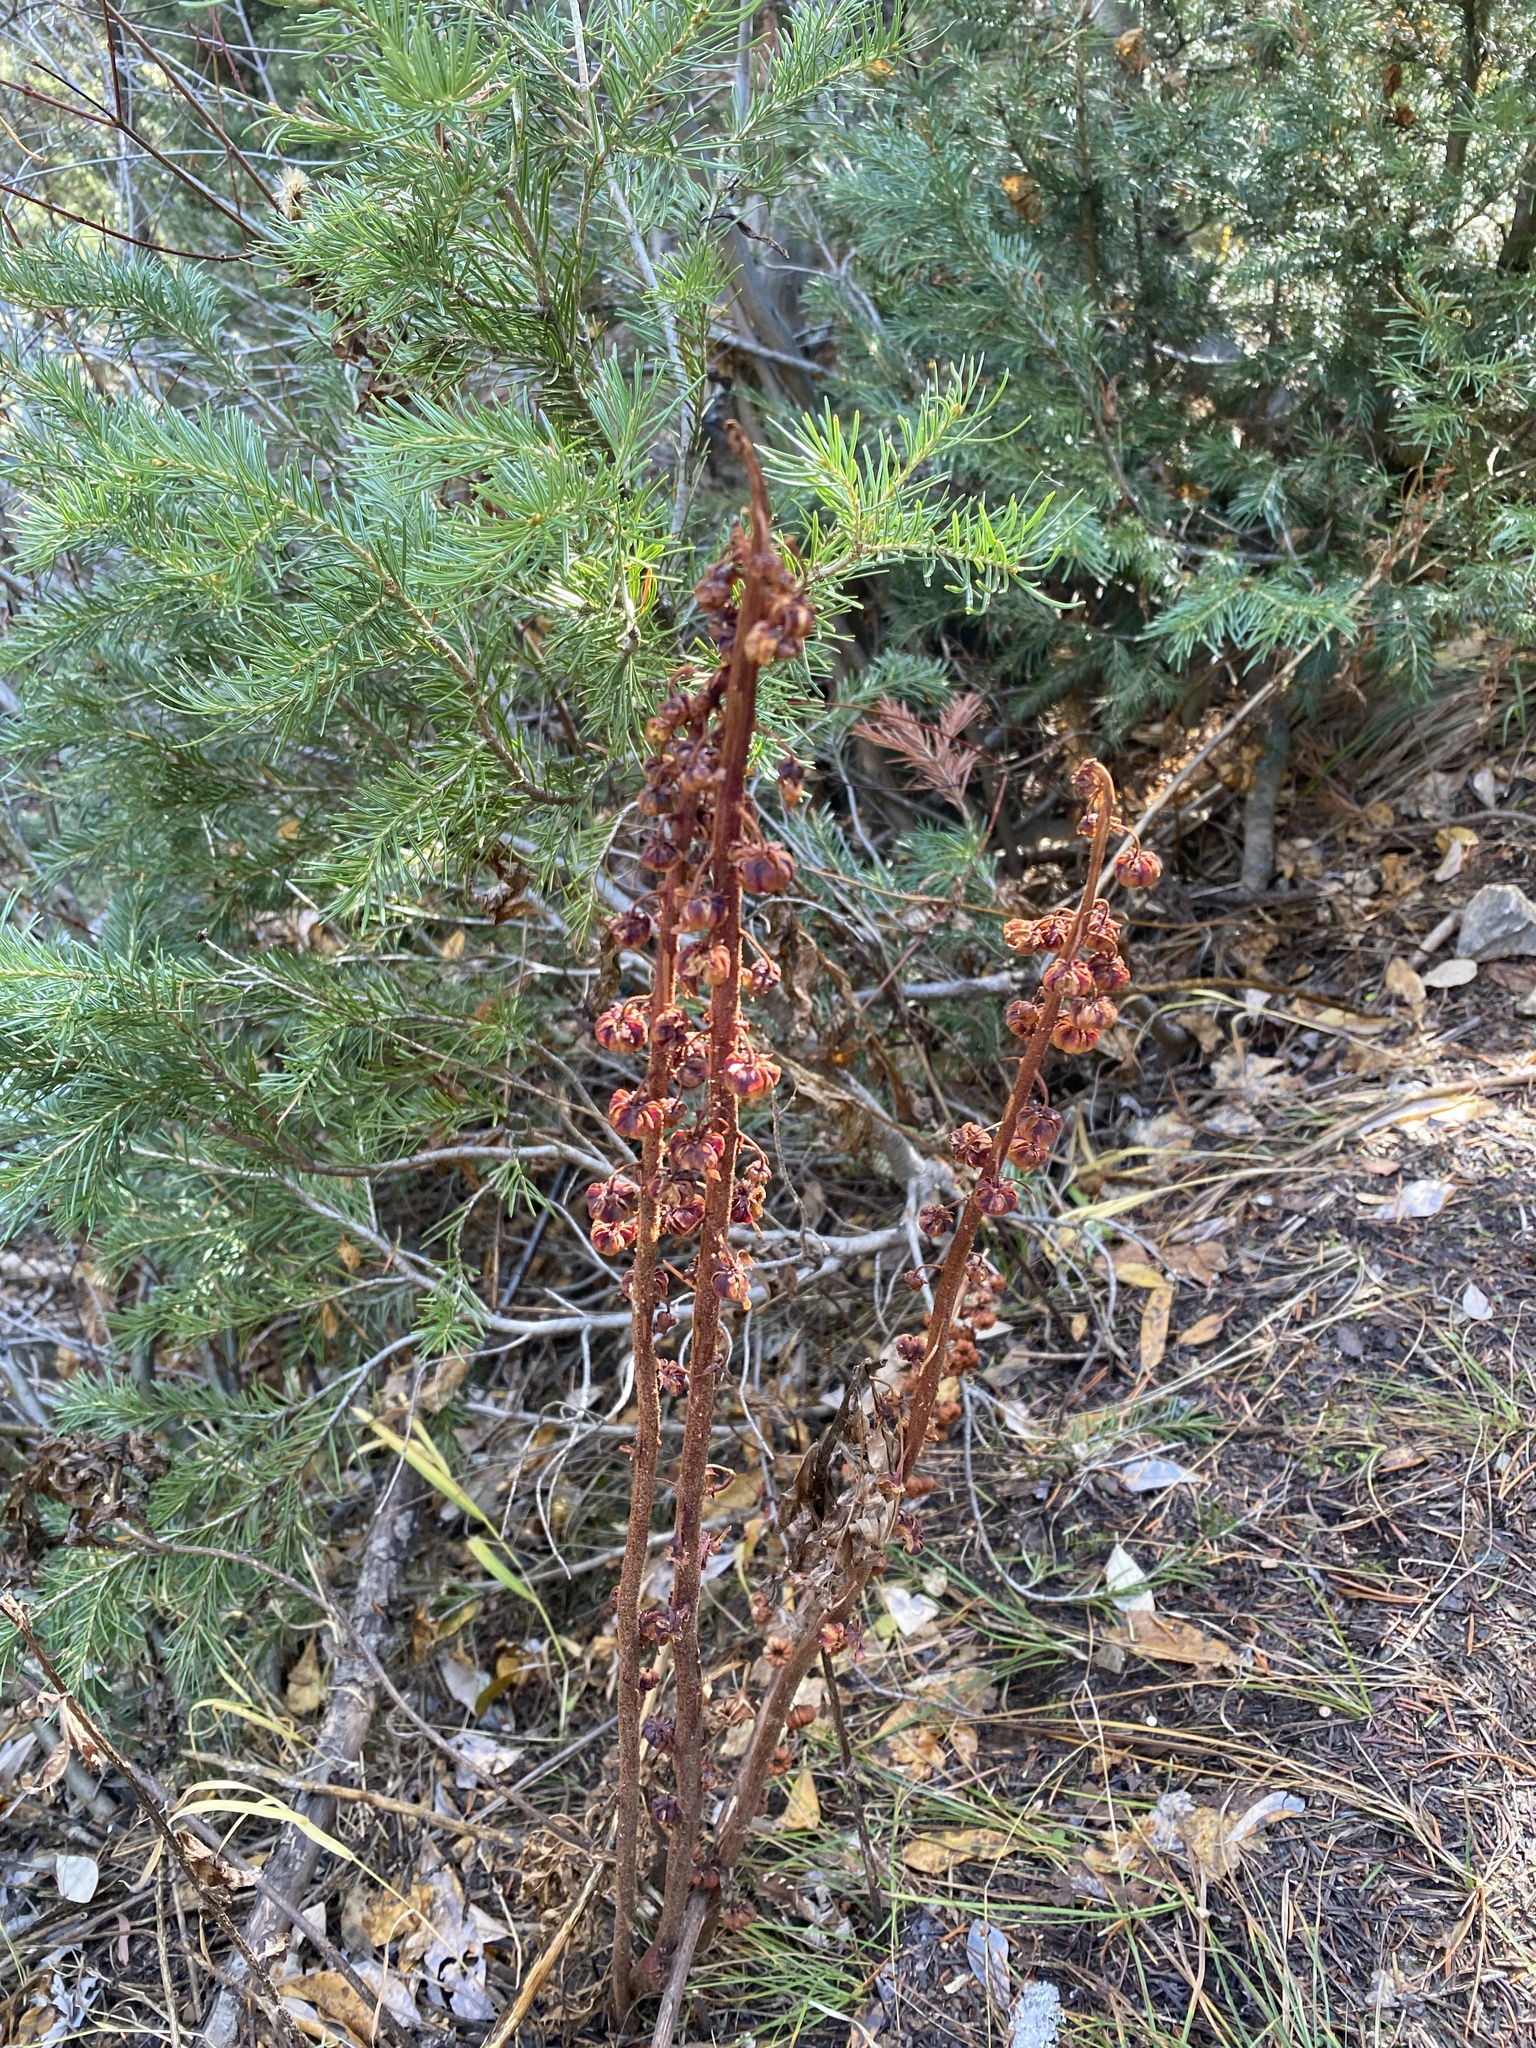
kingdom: Plantae
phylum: Tracheophyta
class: Magnoliopsida
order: Ericales
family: Ericaceae
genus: Pterospora
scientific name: Pterospora andromedea
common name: Giant bird's-nest
